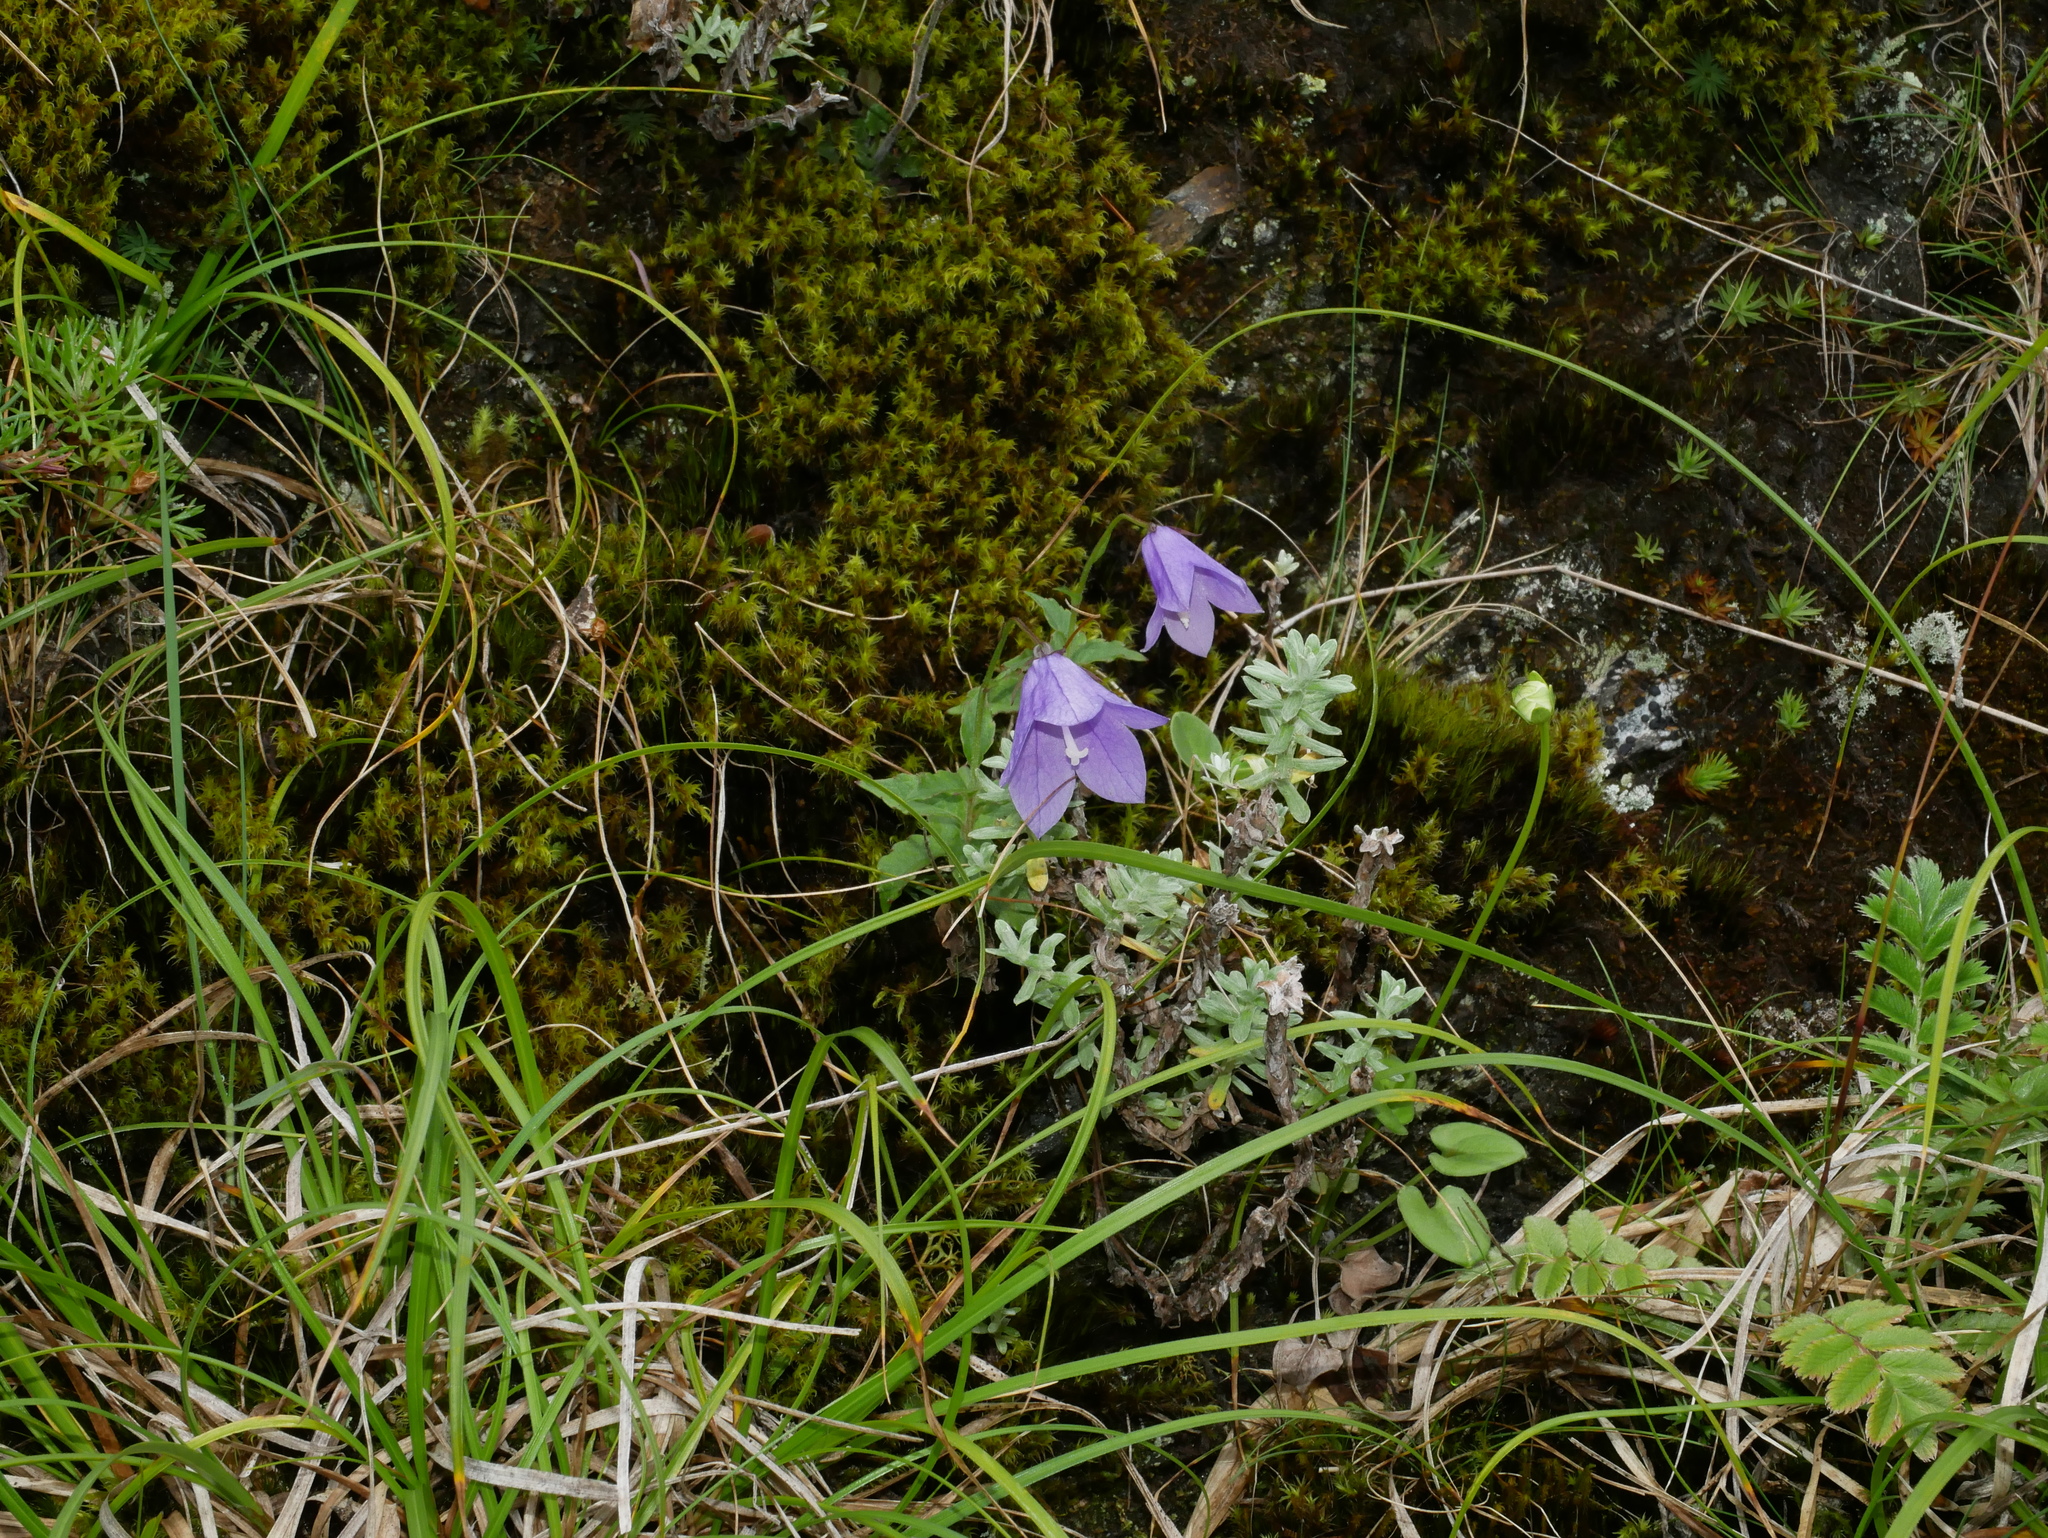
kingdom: Plantae
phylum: Tracheophyta
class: Magnoliopsida
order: Asterales
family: Campanulaceae
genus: Adenophora
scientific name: Adenophora morrisonensis
